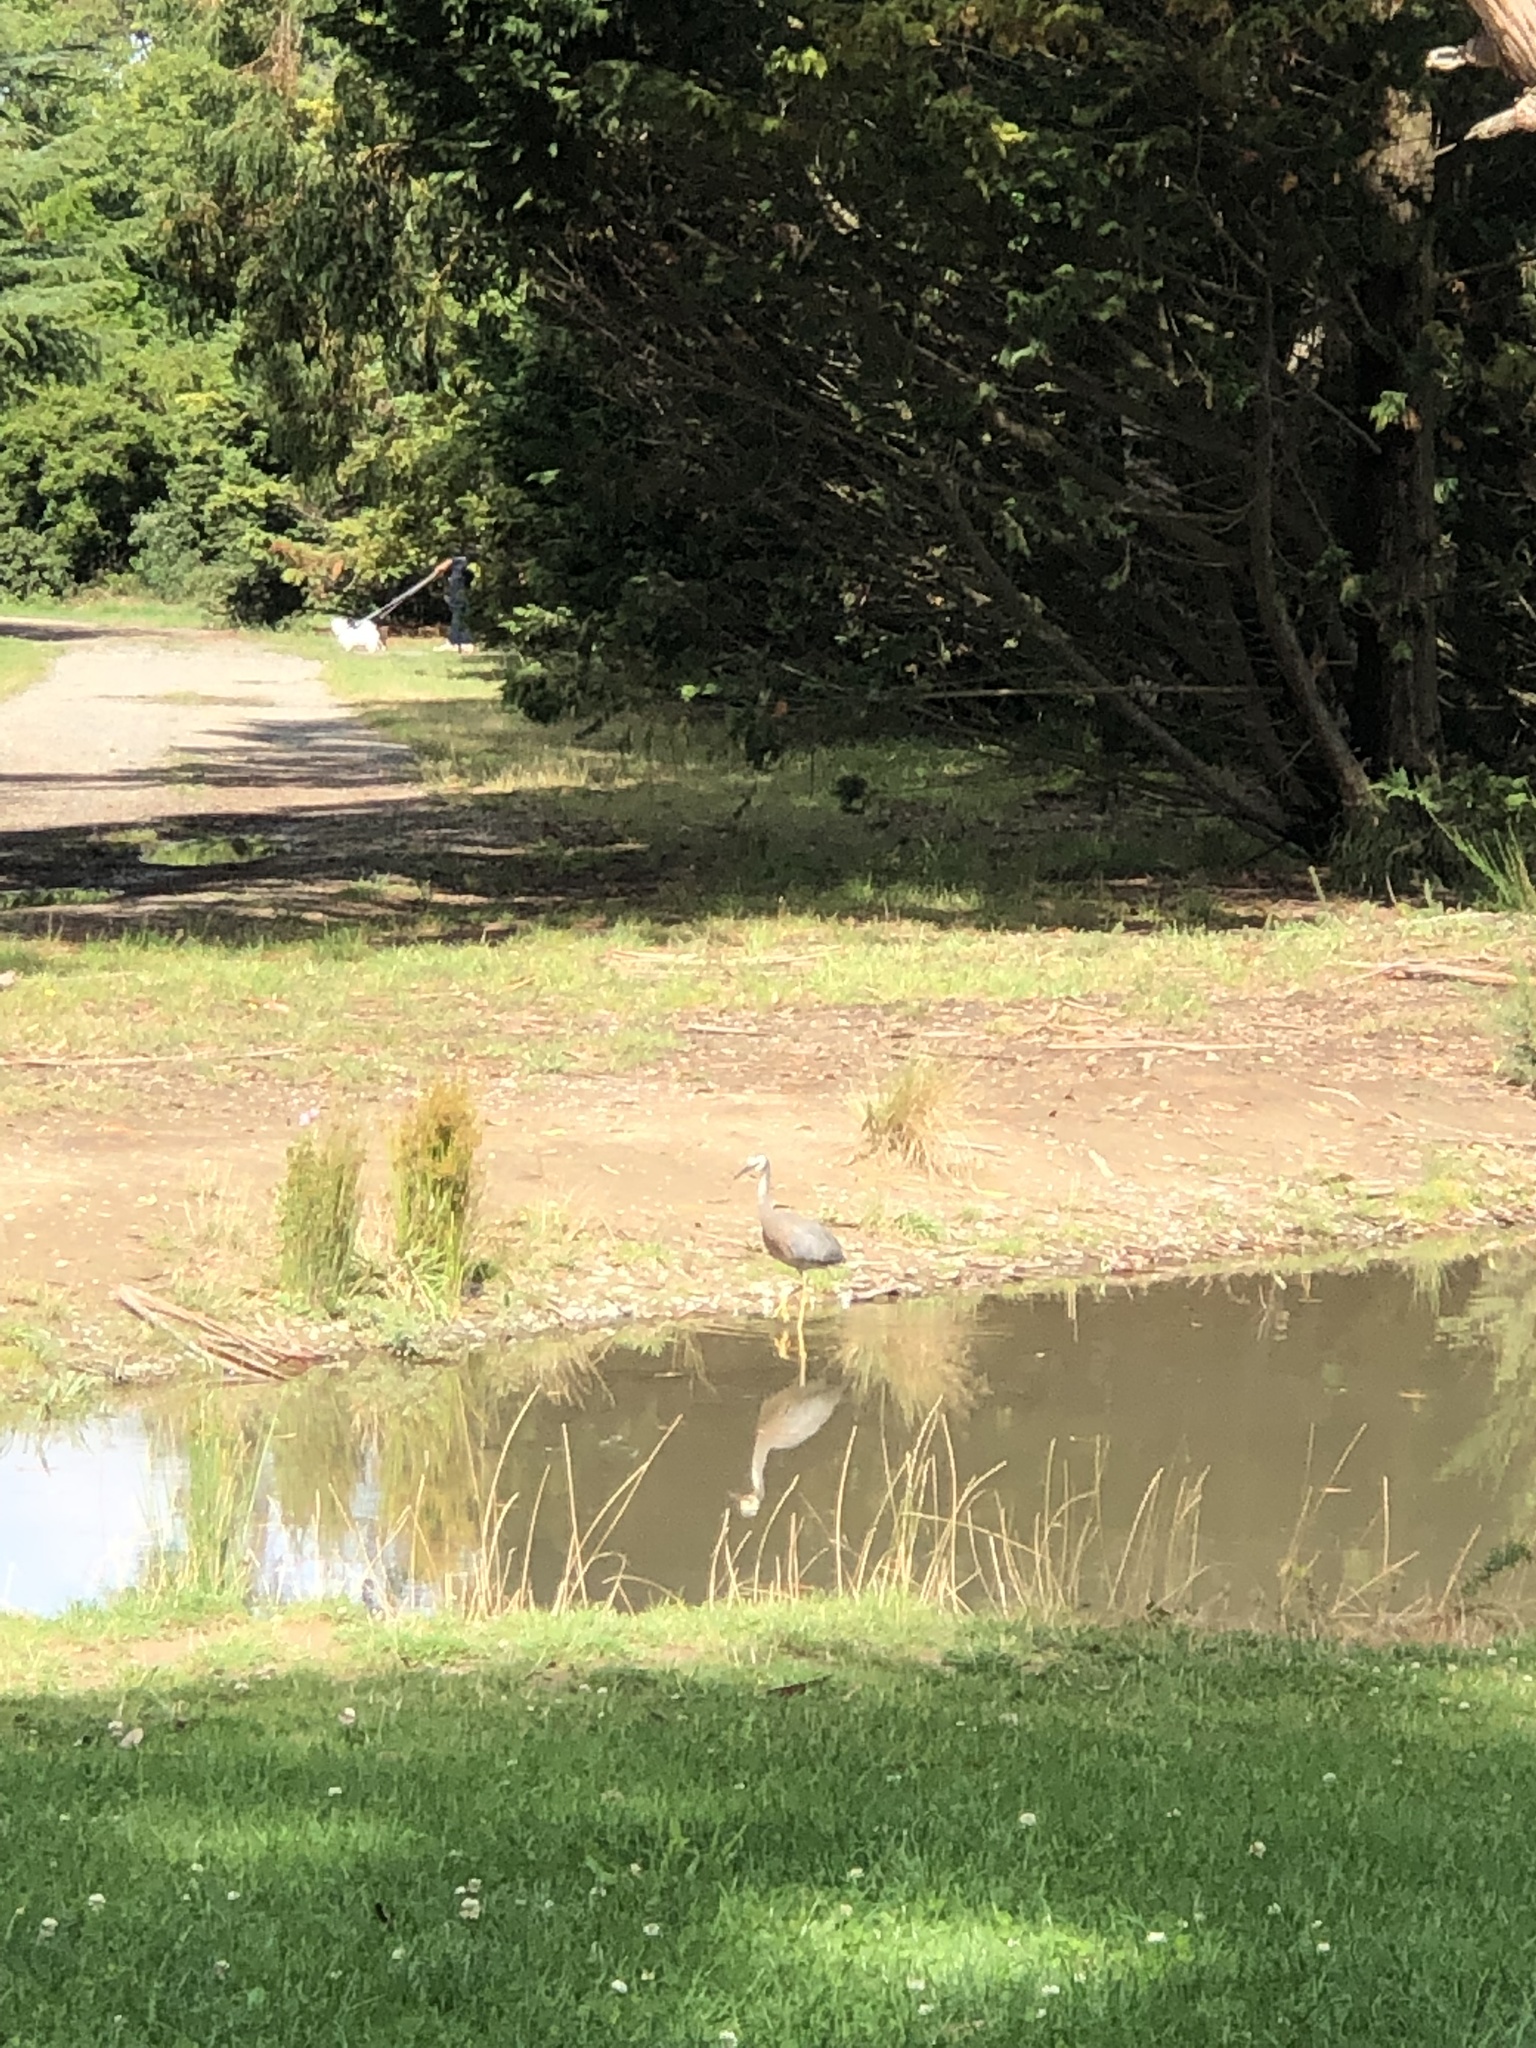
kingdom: Animalia
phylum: Chordata
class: Aves
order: Pelecaniformes
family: Ardeidae
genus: Egretta
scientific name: Egretta novaehollandiae
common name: White-faced heron
